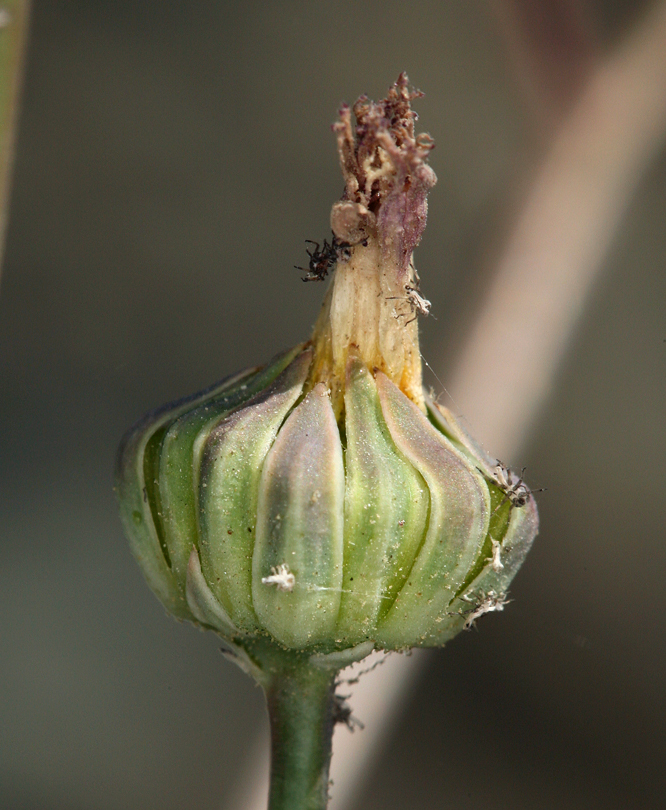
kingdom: Plantae
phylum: Tracheophyta
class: Magnoliopsida
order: Asterales
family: Asteraceae
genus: Atrichoseris
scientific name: Atrichoseris platyphylla
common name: Tobaccoweed
